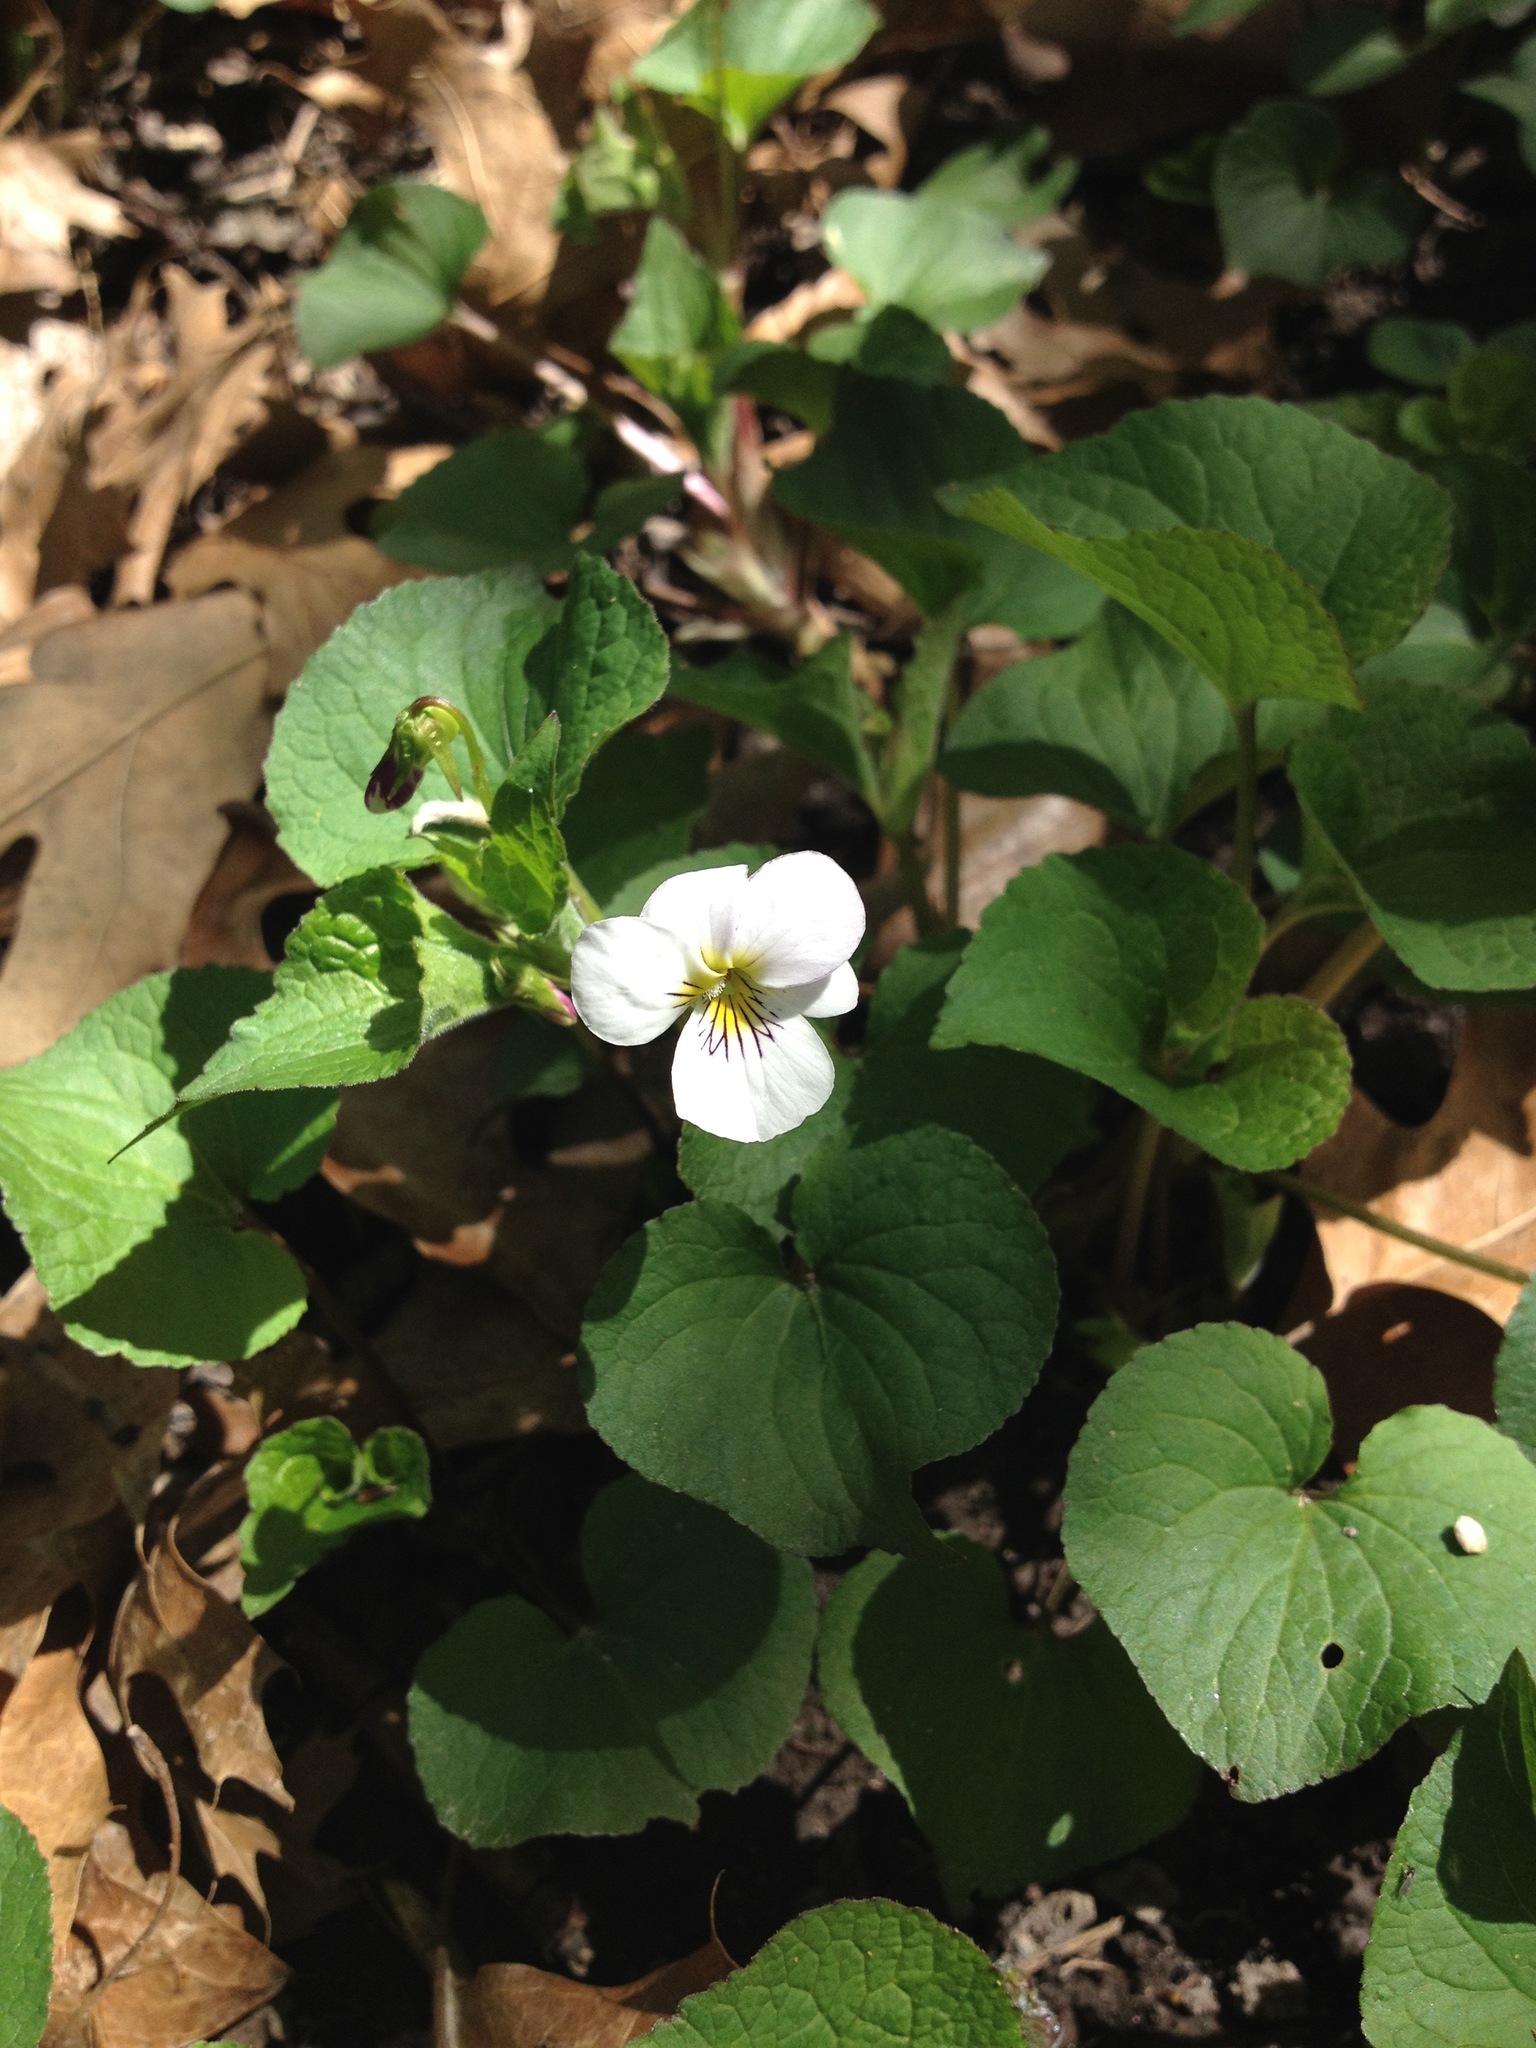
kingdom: Plantae
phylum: Tracheophyta
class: Magnoliopsida
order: Malpighiales
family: Violaceae
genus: Viola
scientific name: Viola canadensis
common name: Canada violet
